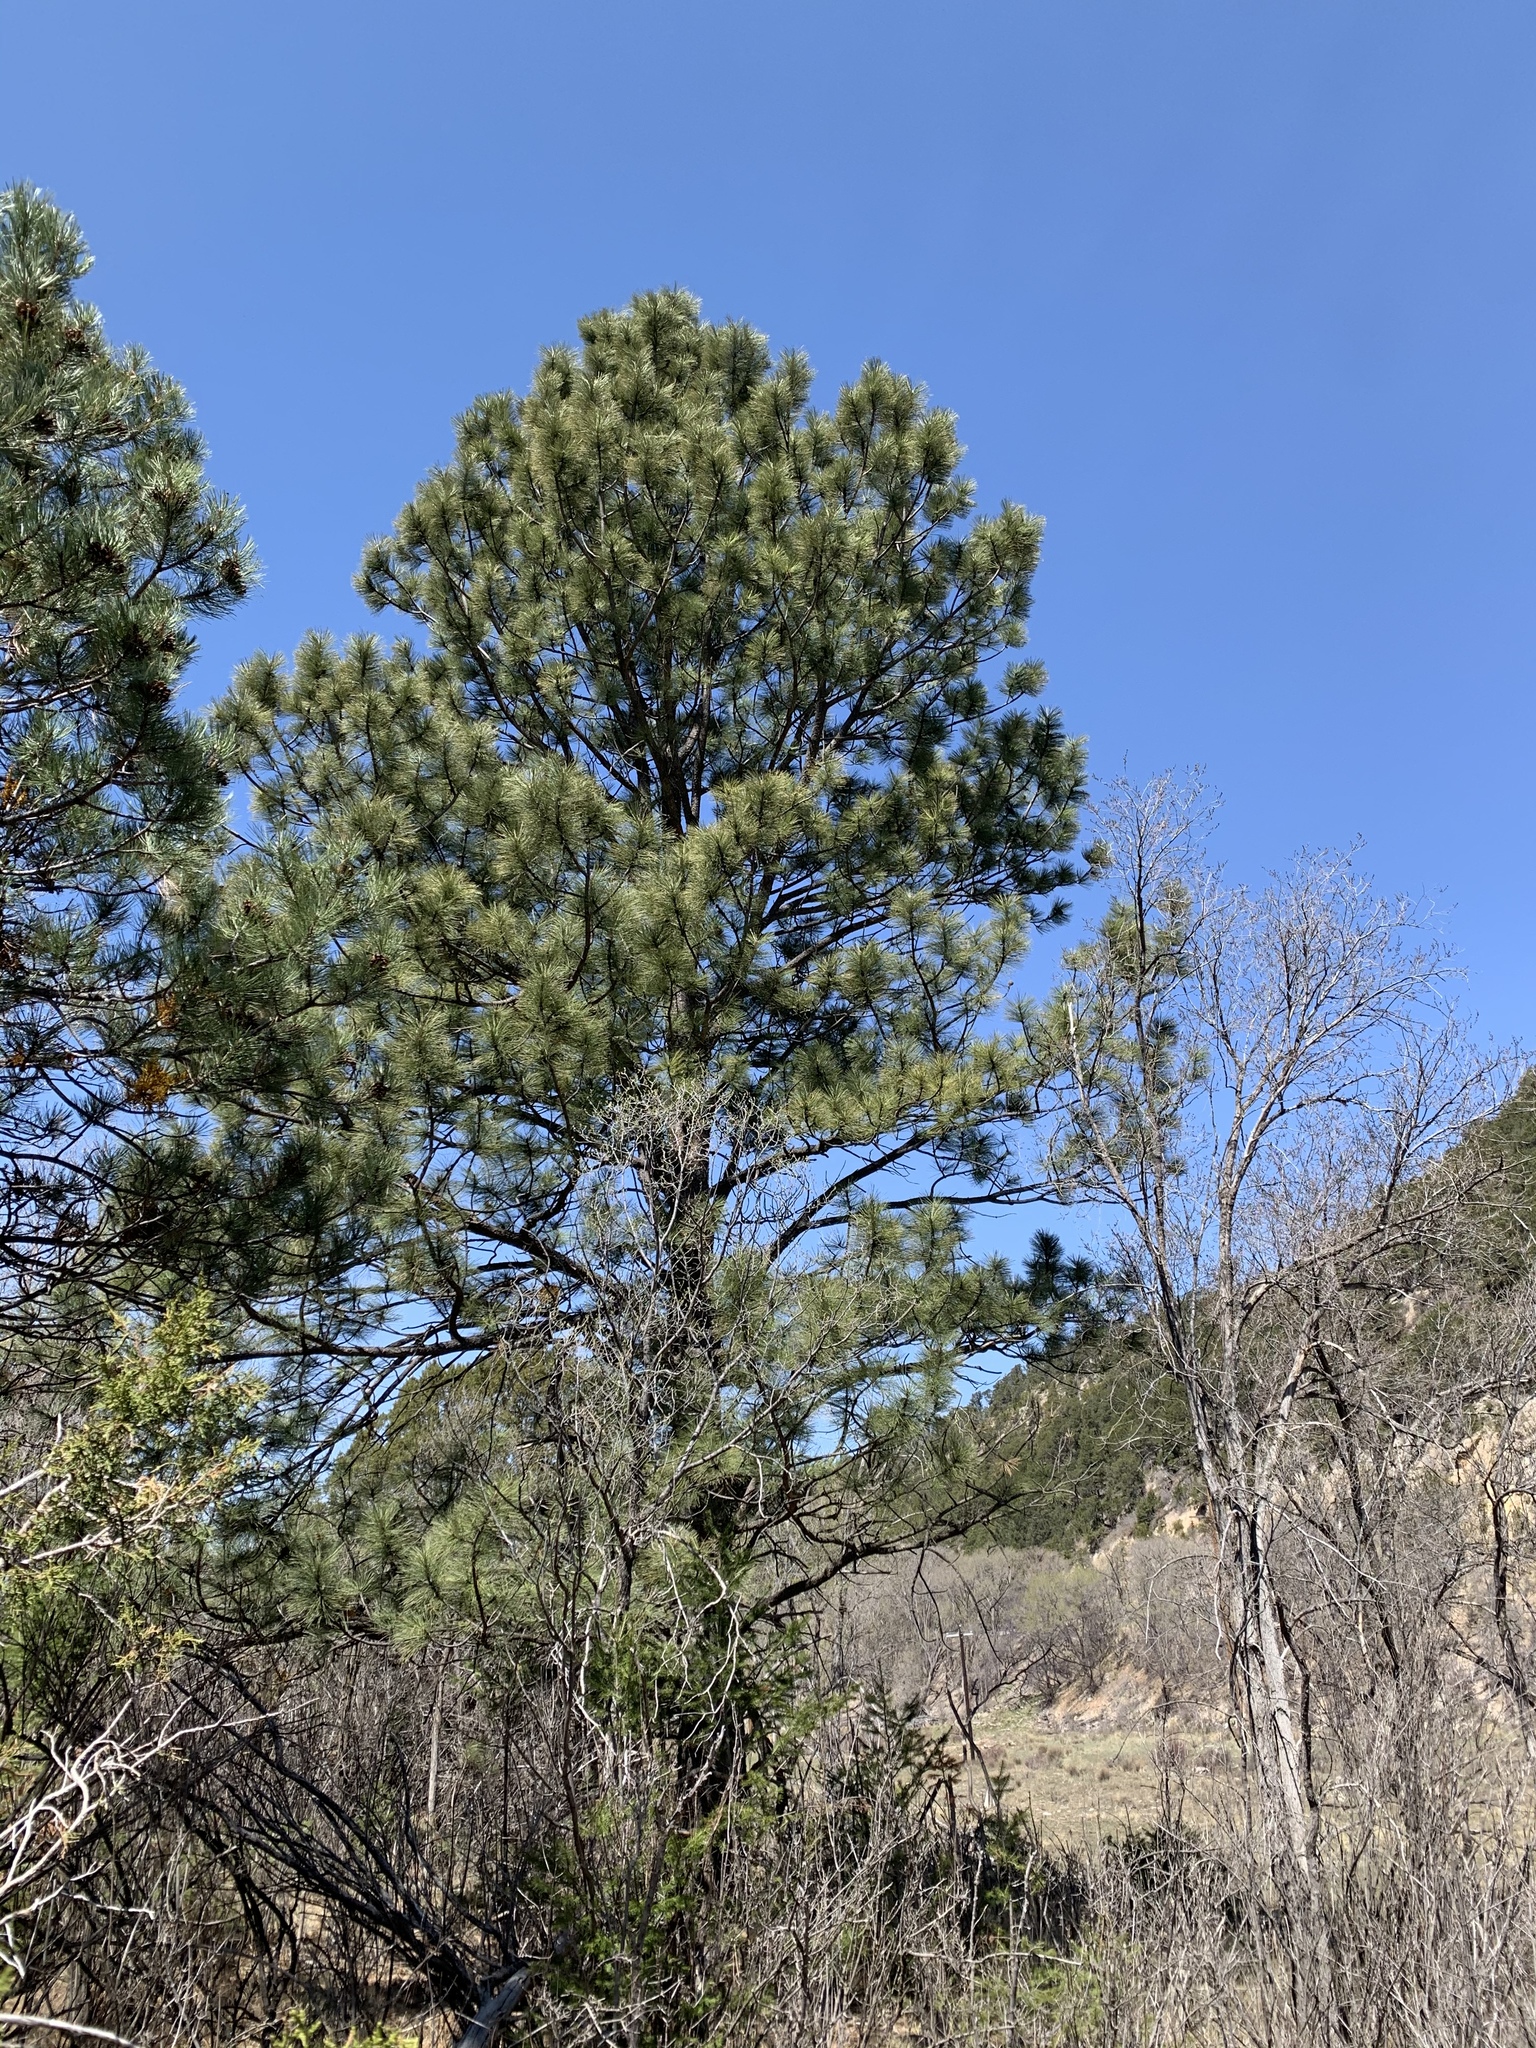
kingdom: Plantae
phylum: Tracheophyta
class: Pinopsida
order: Pinales
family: Pinaceae
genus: Pinus
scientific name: Pinus ponderosa
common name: Western yellow-pine
